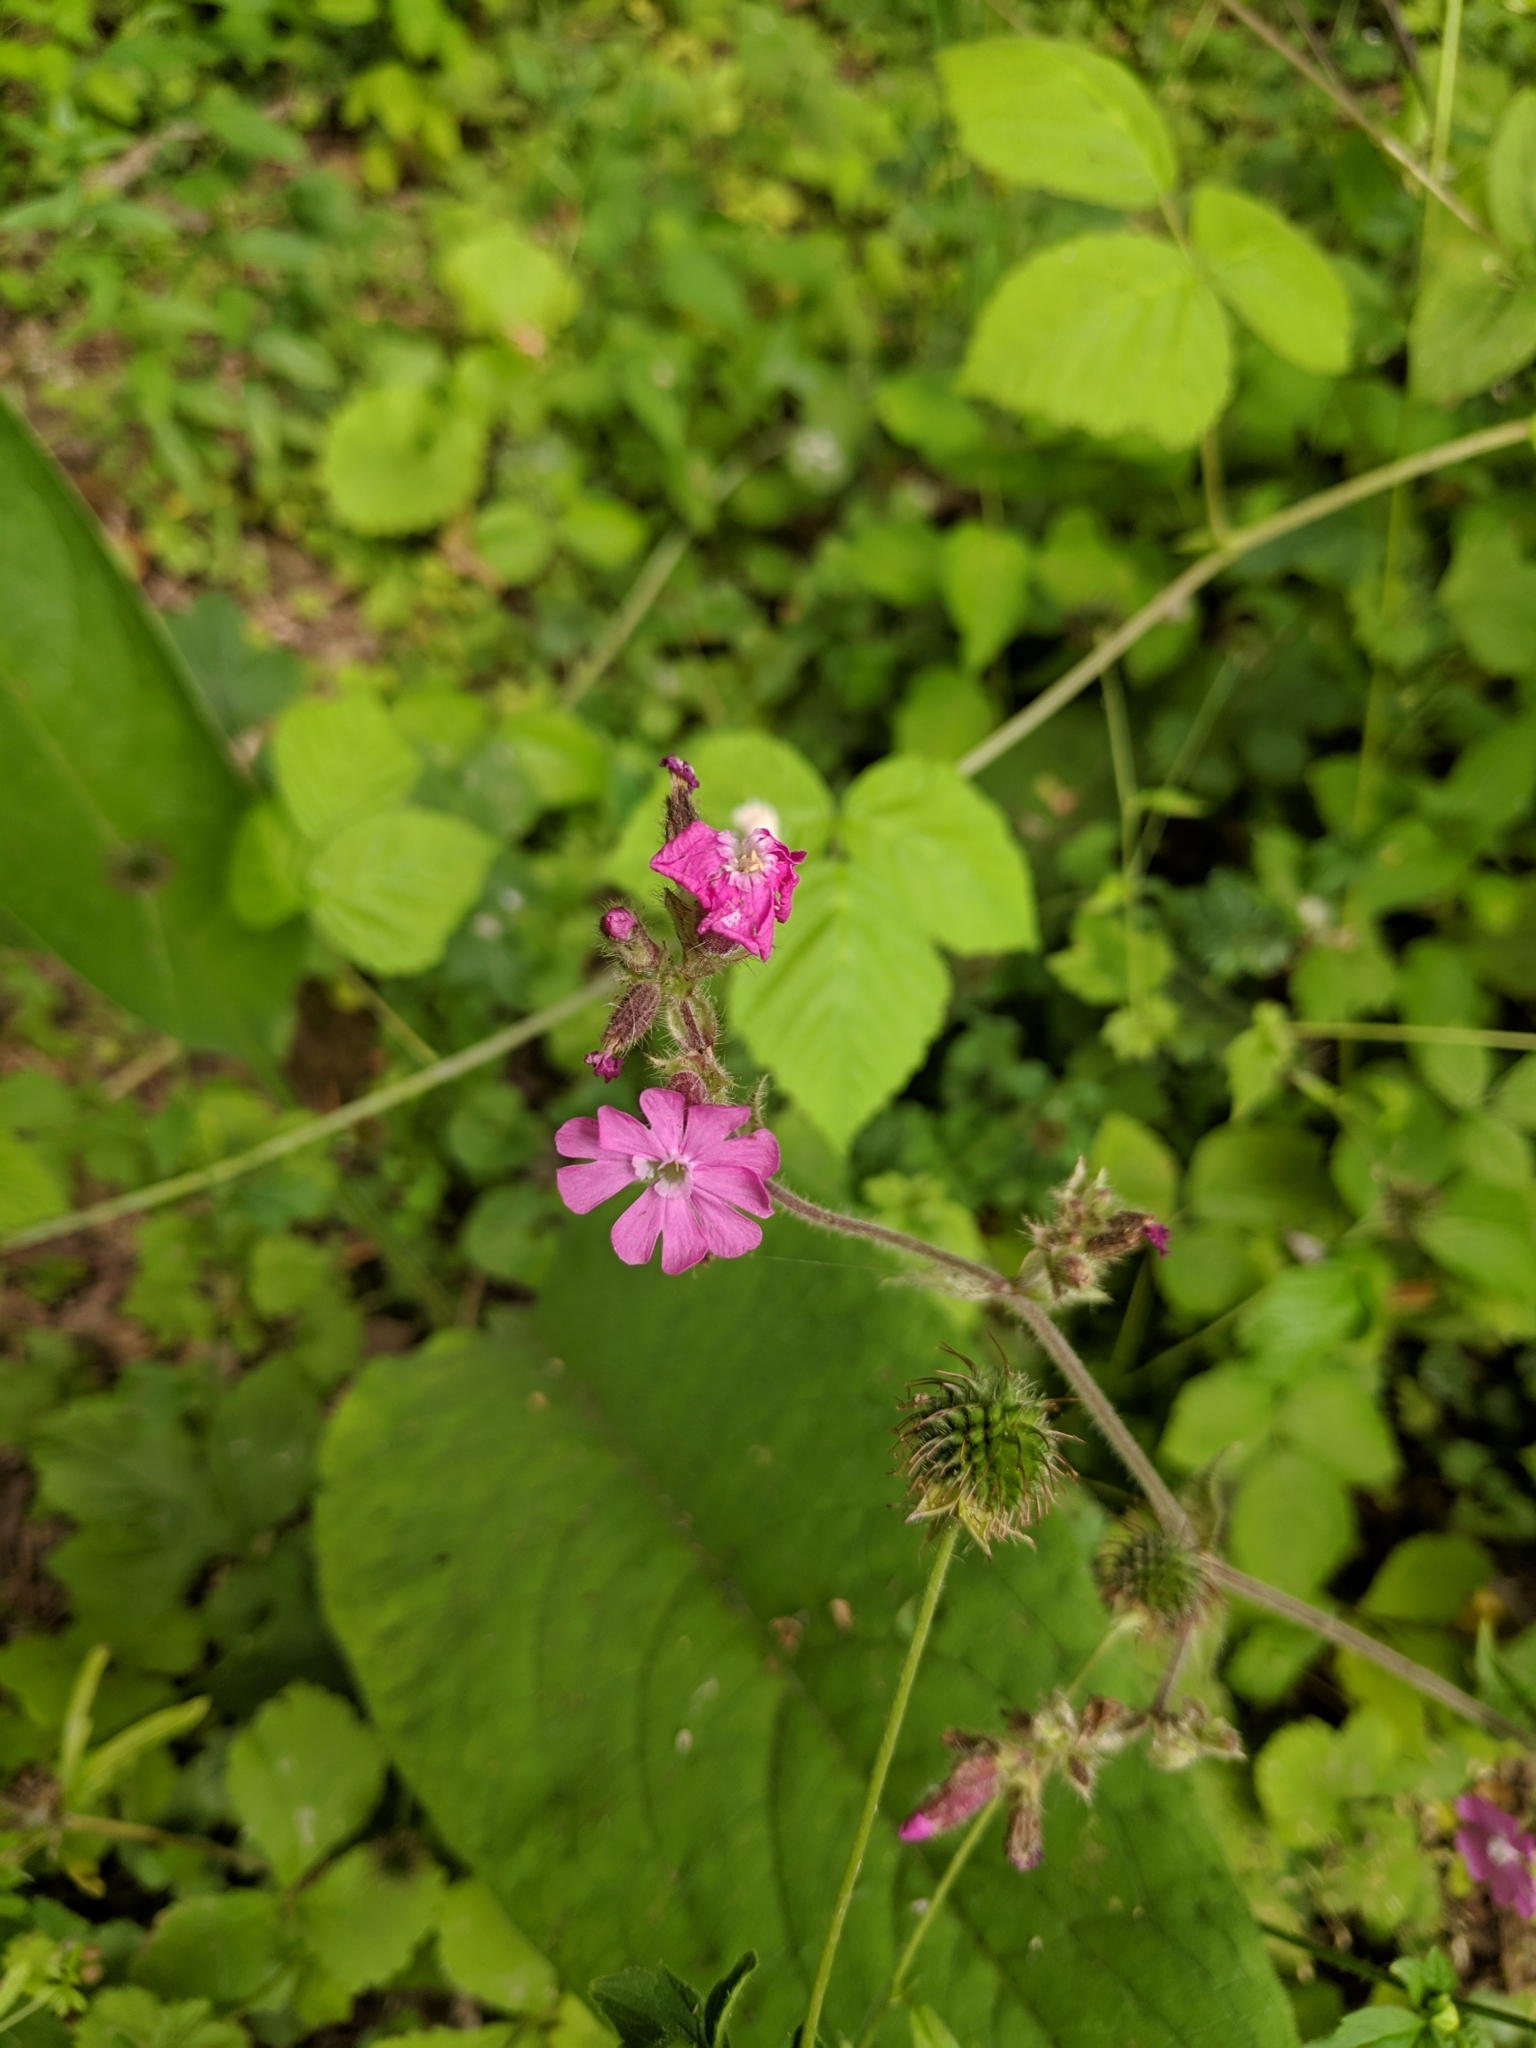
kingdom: Plantae
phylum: Tracheophyta
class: Magnoliopsida
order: Caryophyllales
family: Caryophyllaceae
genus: Silene
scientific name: Silene dioica
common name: Red campion
